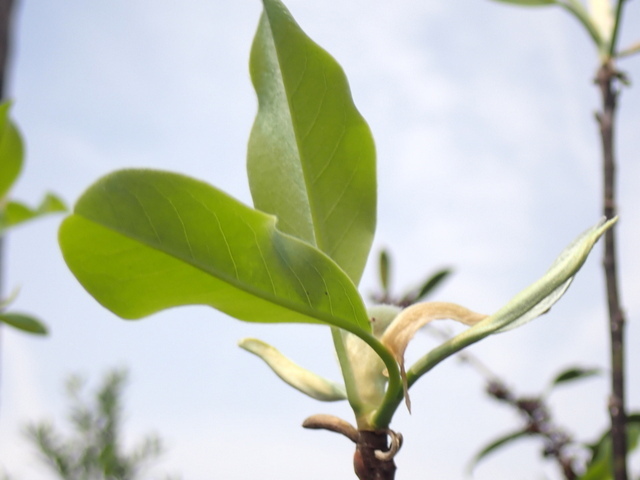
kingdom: Plantae
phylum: Tracheophyta
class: Magnoliopsida
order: Magnoliales
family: Magnoliaceae
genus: Magnolia
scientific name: Magnolia virginiana
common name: Swamp bay
